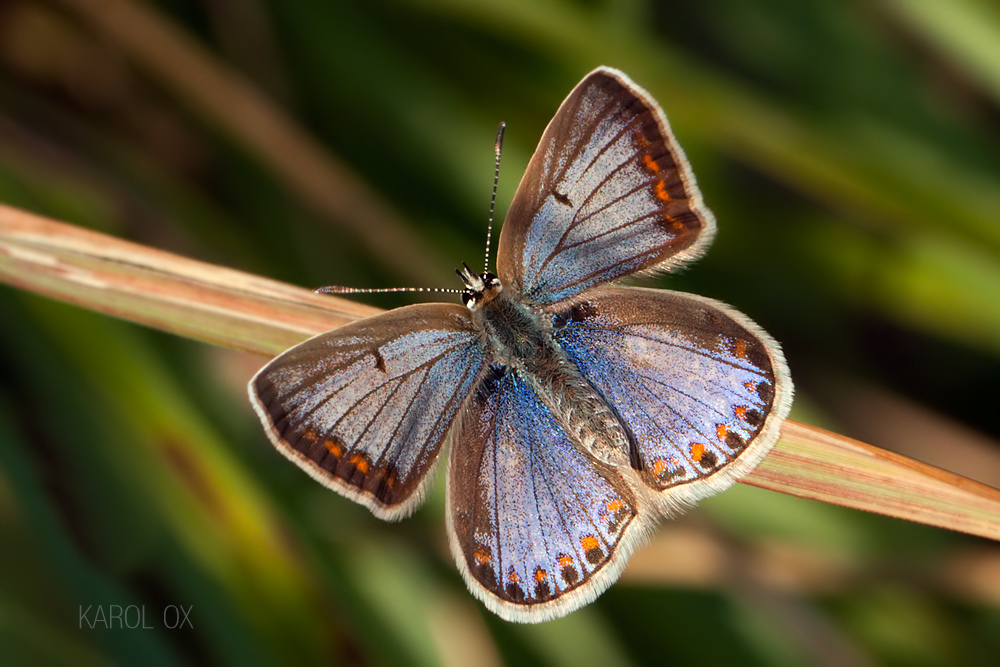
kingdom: Animalia
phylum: Arthropoda
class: Insecta
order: Lepidoptera
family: Lycaenidae
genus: Polyommatus
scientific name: Polyommatus icarus
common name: Common blue
